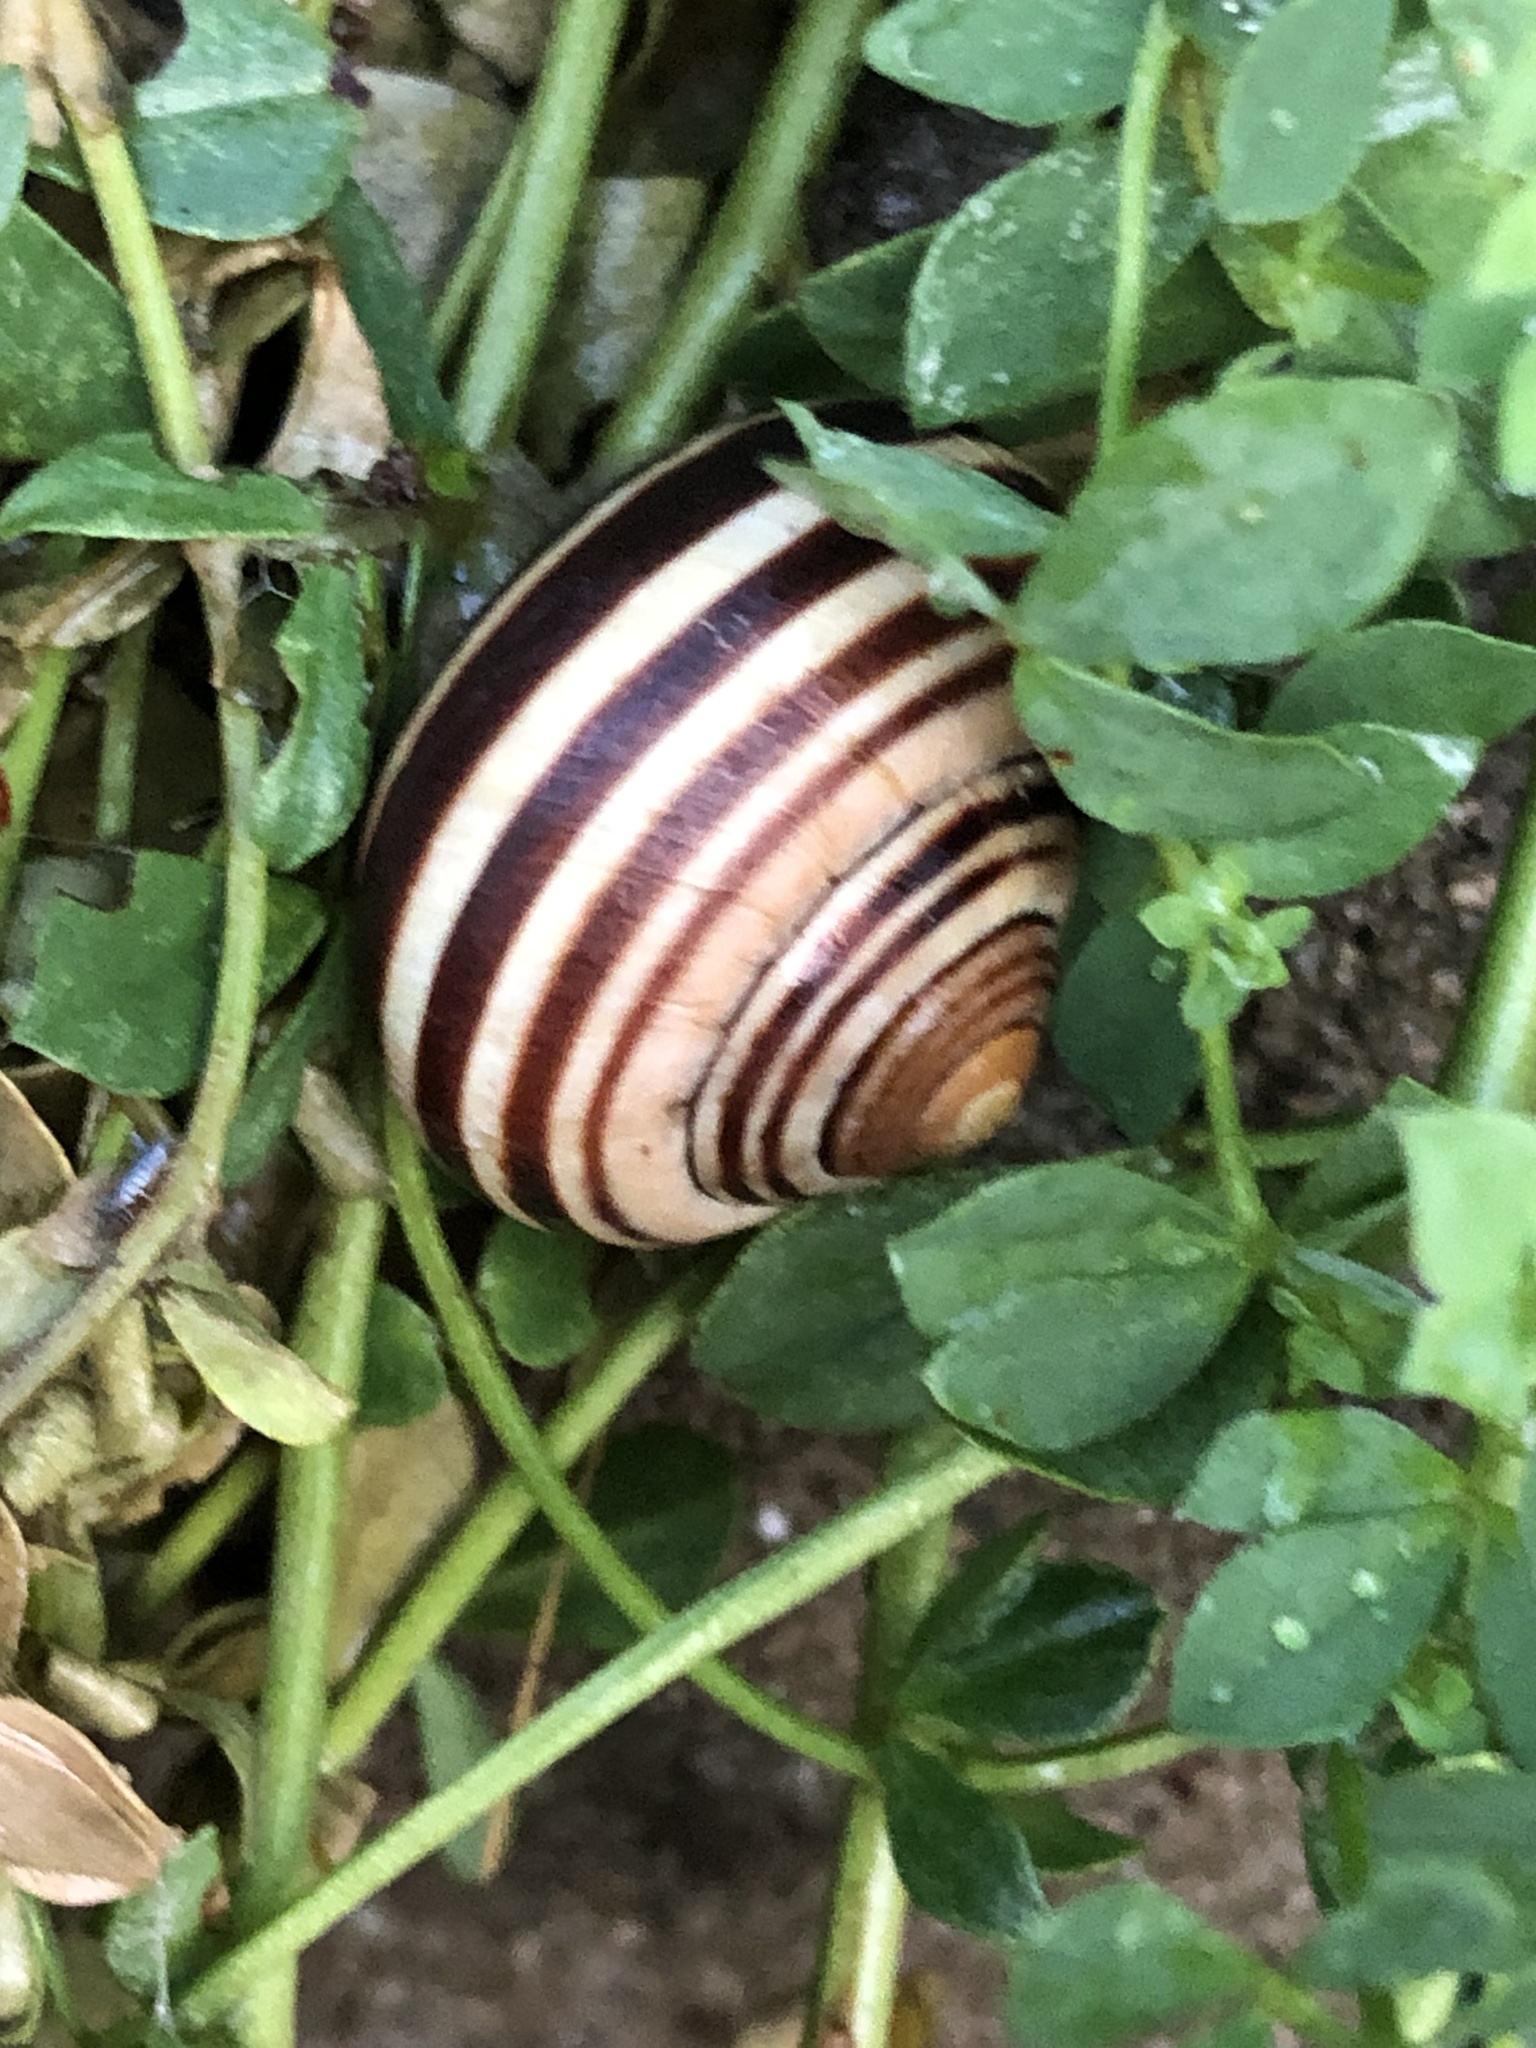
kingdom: Animalia
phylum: Mollusca
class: Gastropoda
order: Stylommatophora
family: Helicidae
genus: Cepaea
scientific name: Cepaea nemoralis
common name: Grovesnail
